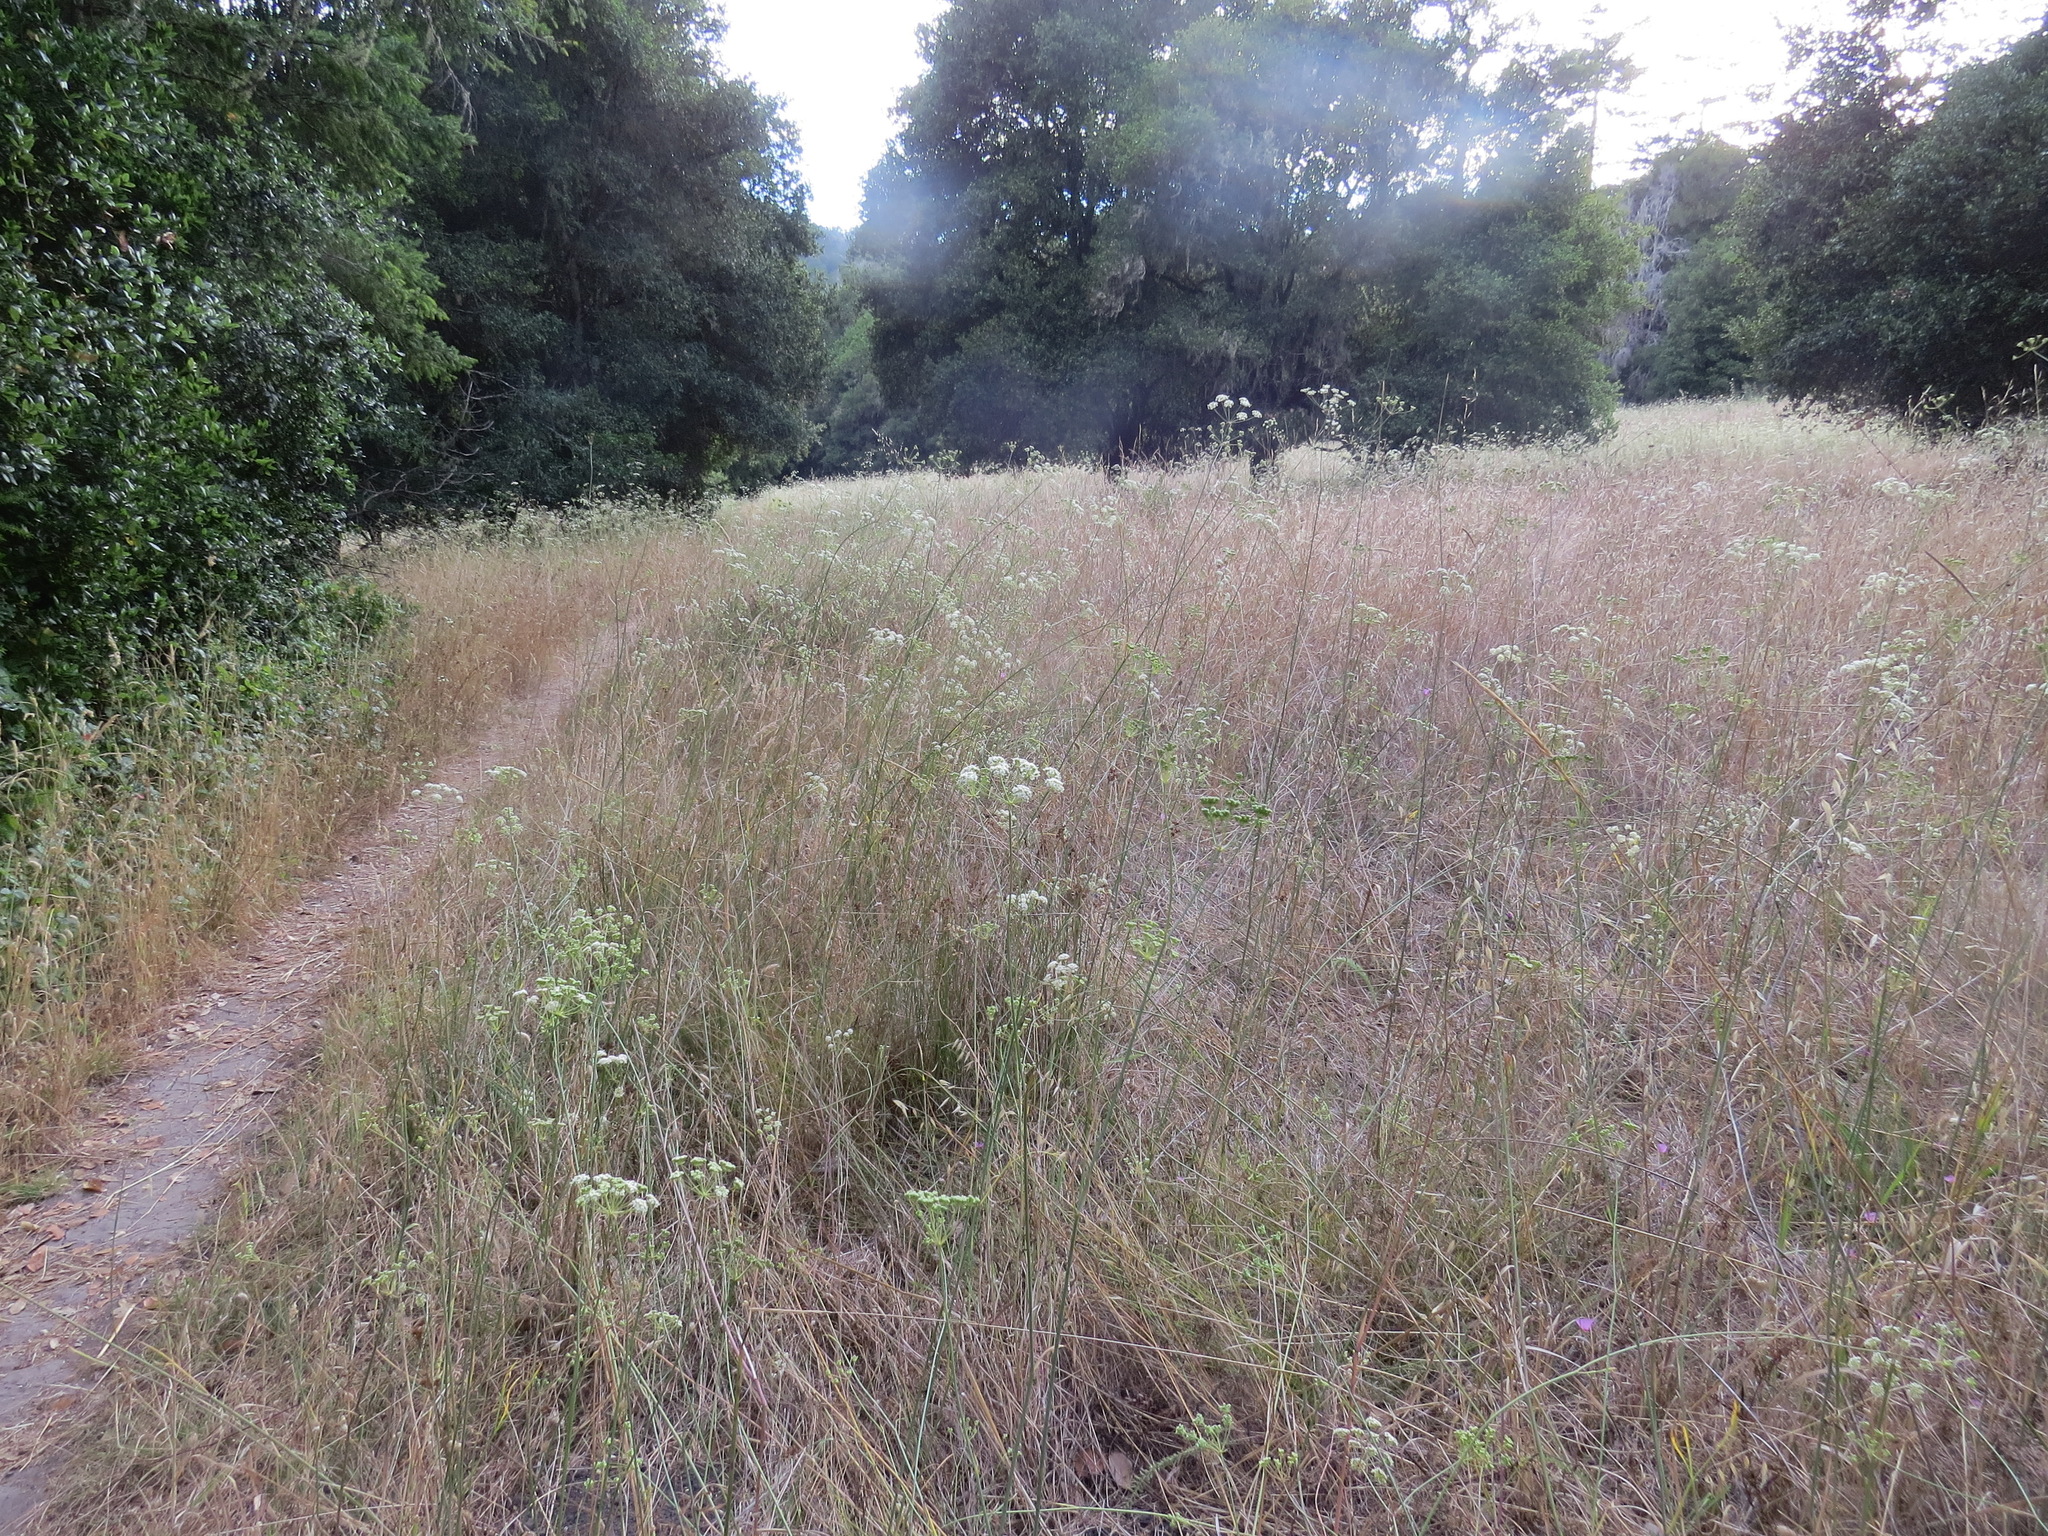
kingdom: Plantae
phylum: Tracheophyta
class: Magnoliopsida
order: Apiales
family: Apiaceae
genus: Perideridia
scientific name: Perideridia kelloggii
